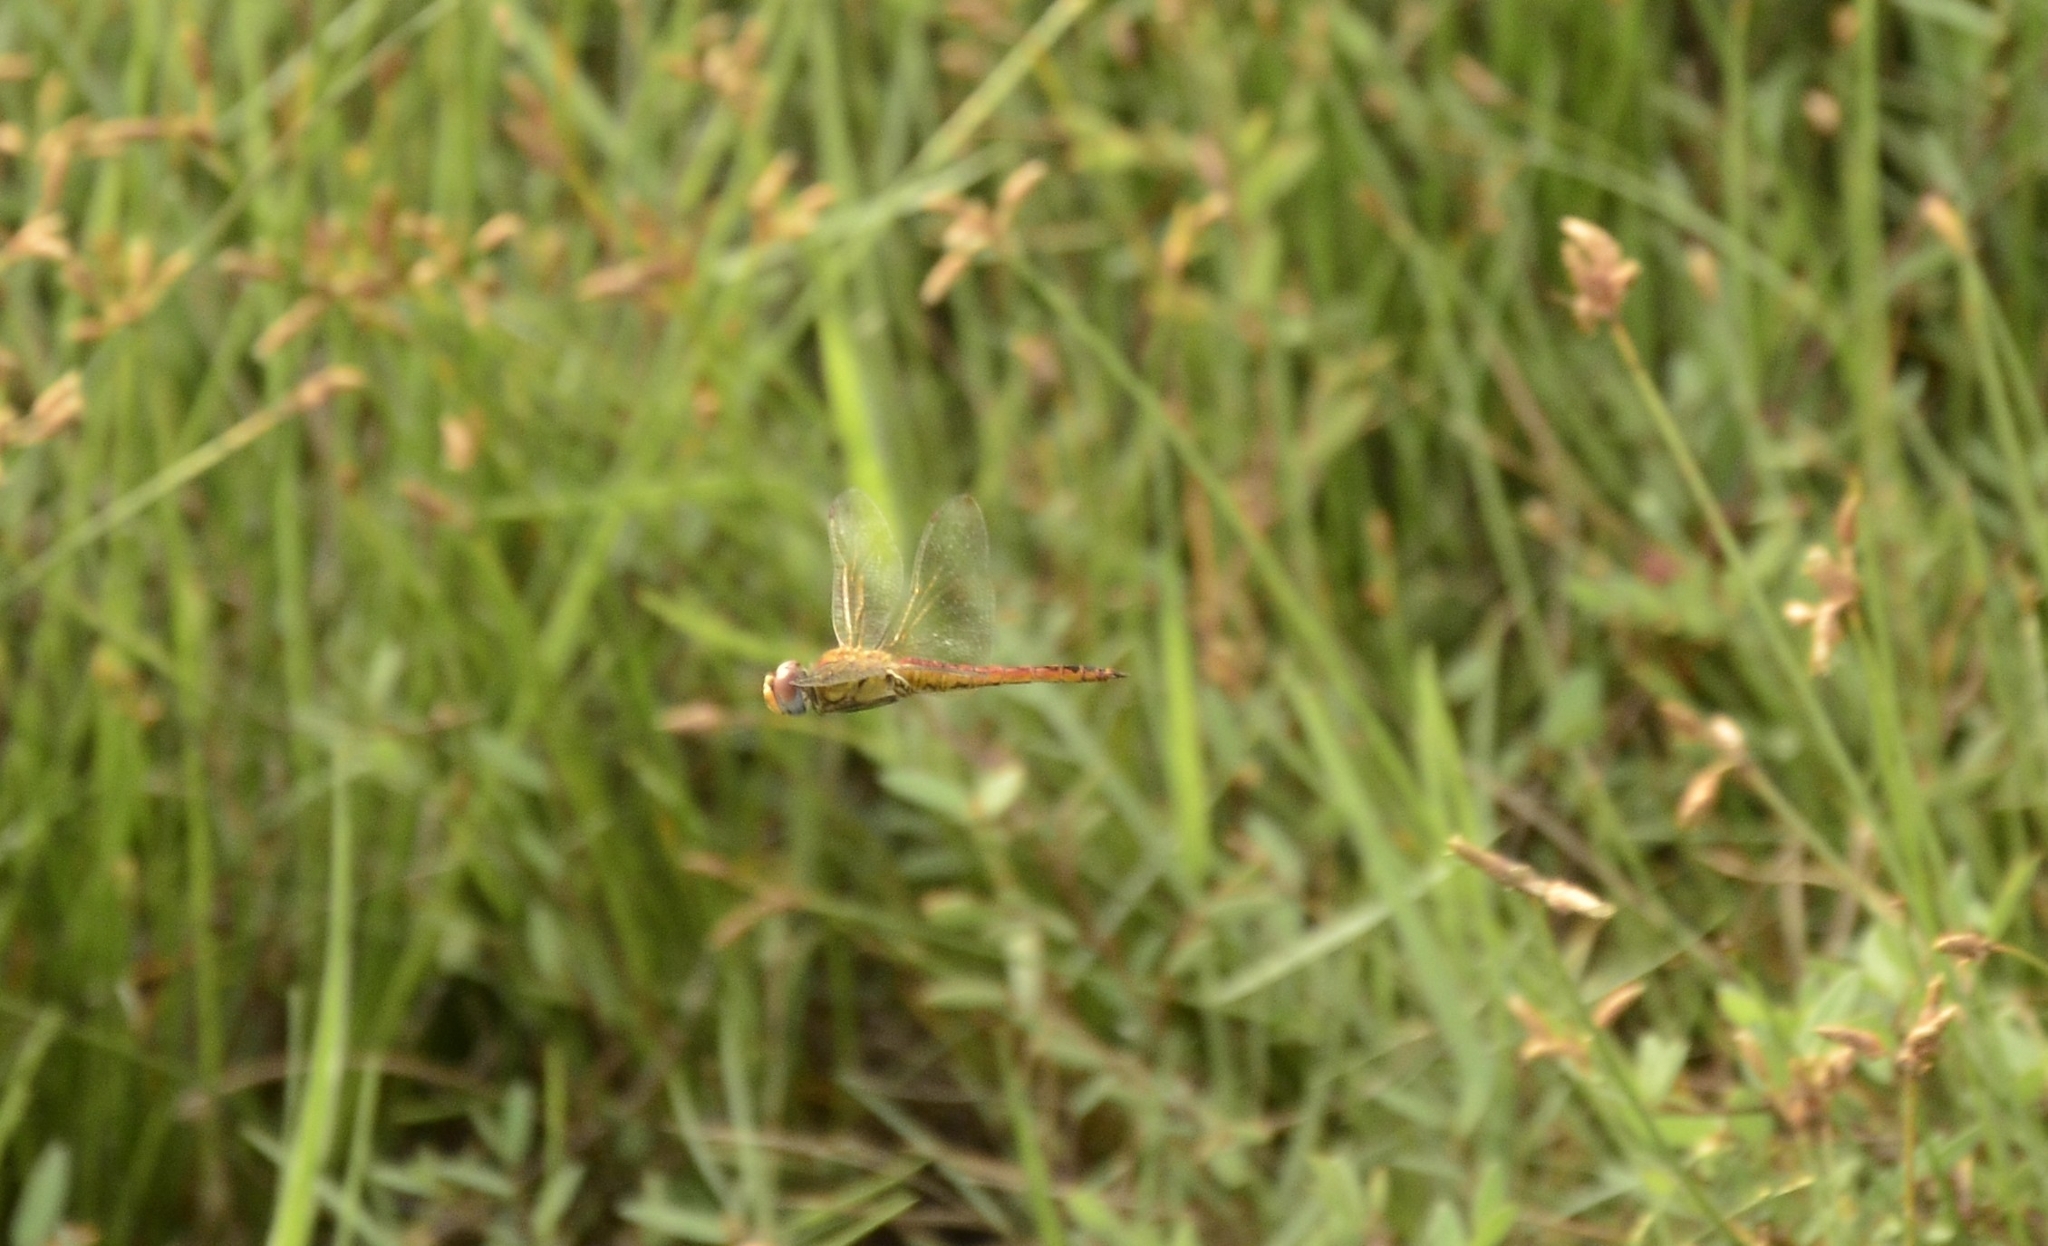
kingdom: Animalia
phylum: Arthropoda
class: Insecta
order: Odonata
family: Libellulidae
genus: Pantala
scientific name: Pantala flavescens
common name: Wandering glider
